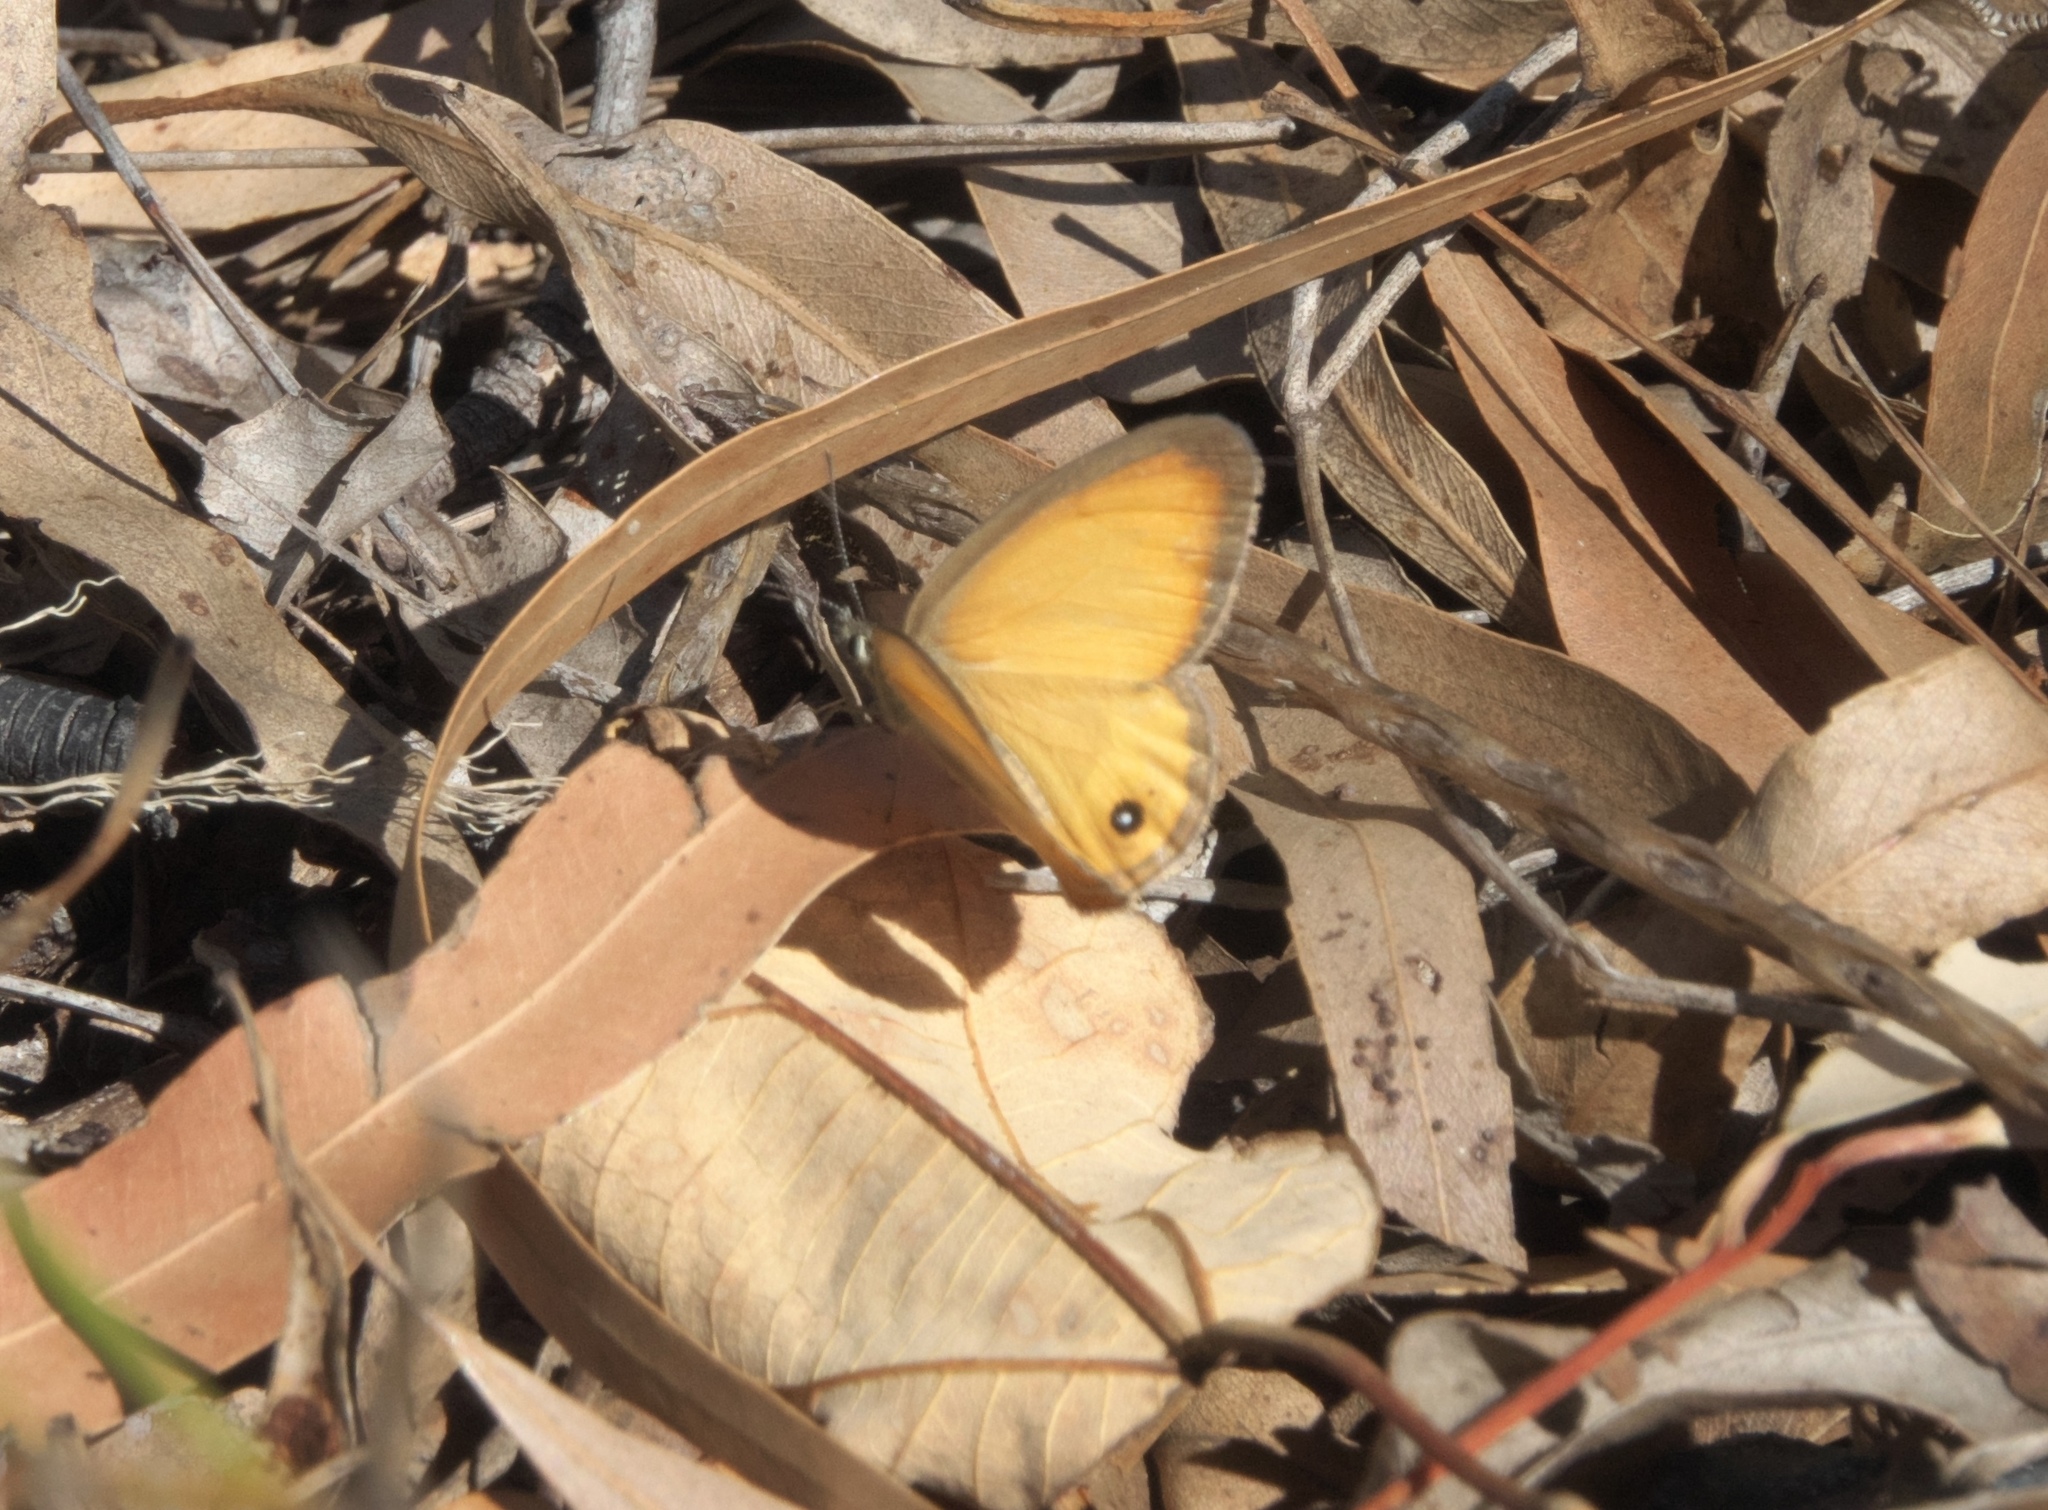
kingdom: Animalia
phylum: Arthropoda
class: Insecta
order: Lepidoptera
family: Nymphalidae
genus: Hypocysta
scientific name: Hypocysta adiante
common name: Orange ringlet
